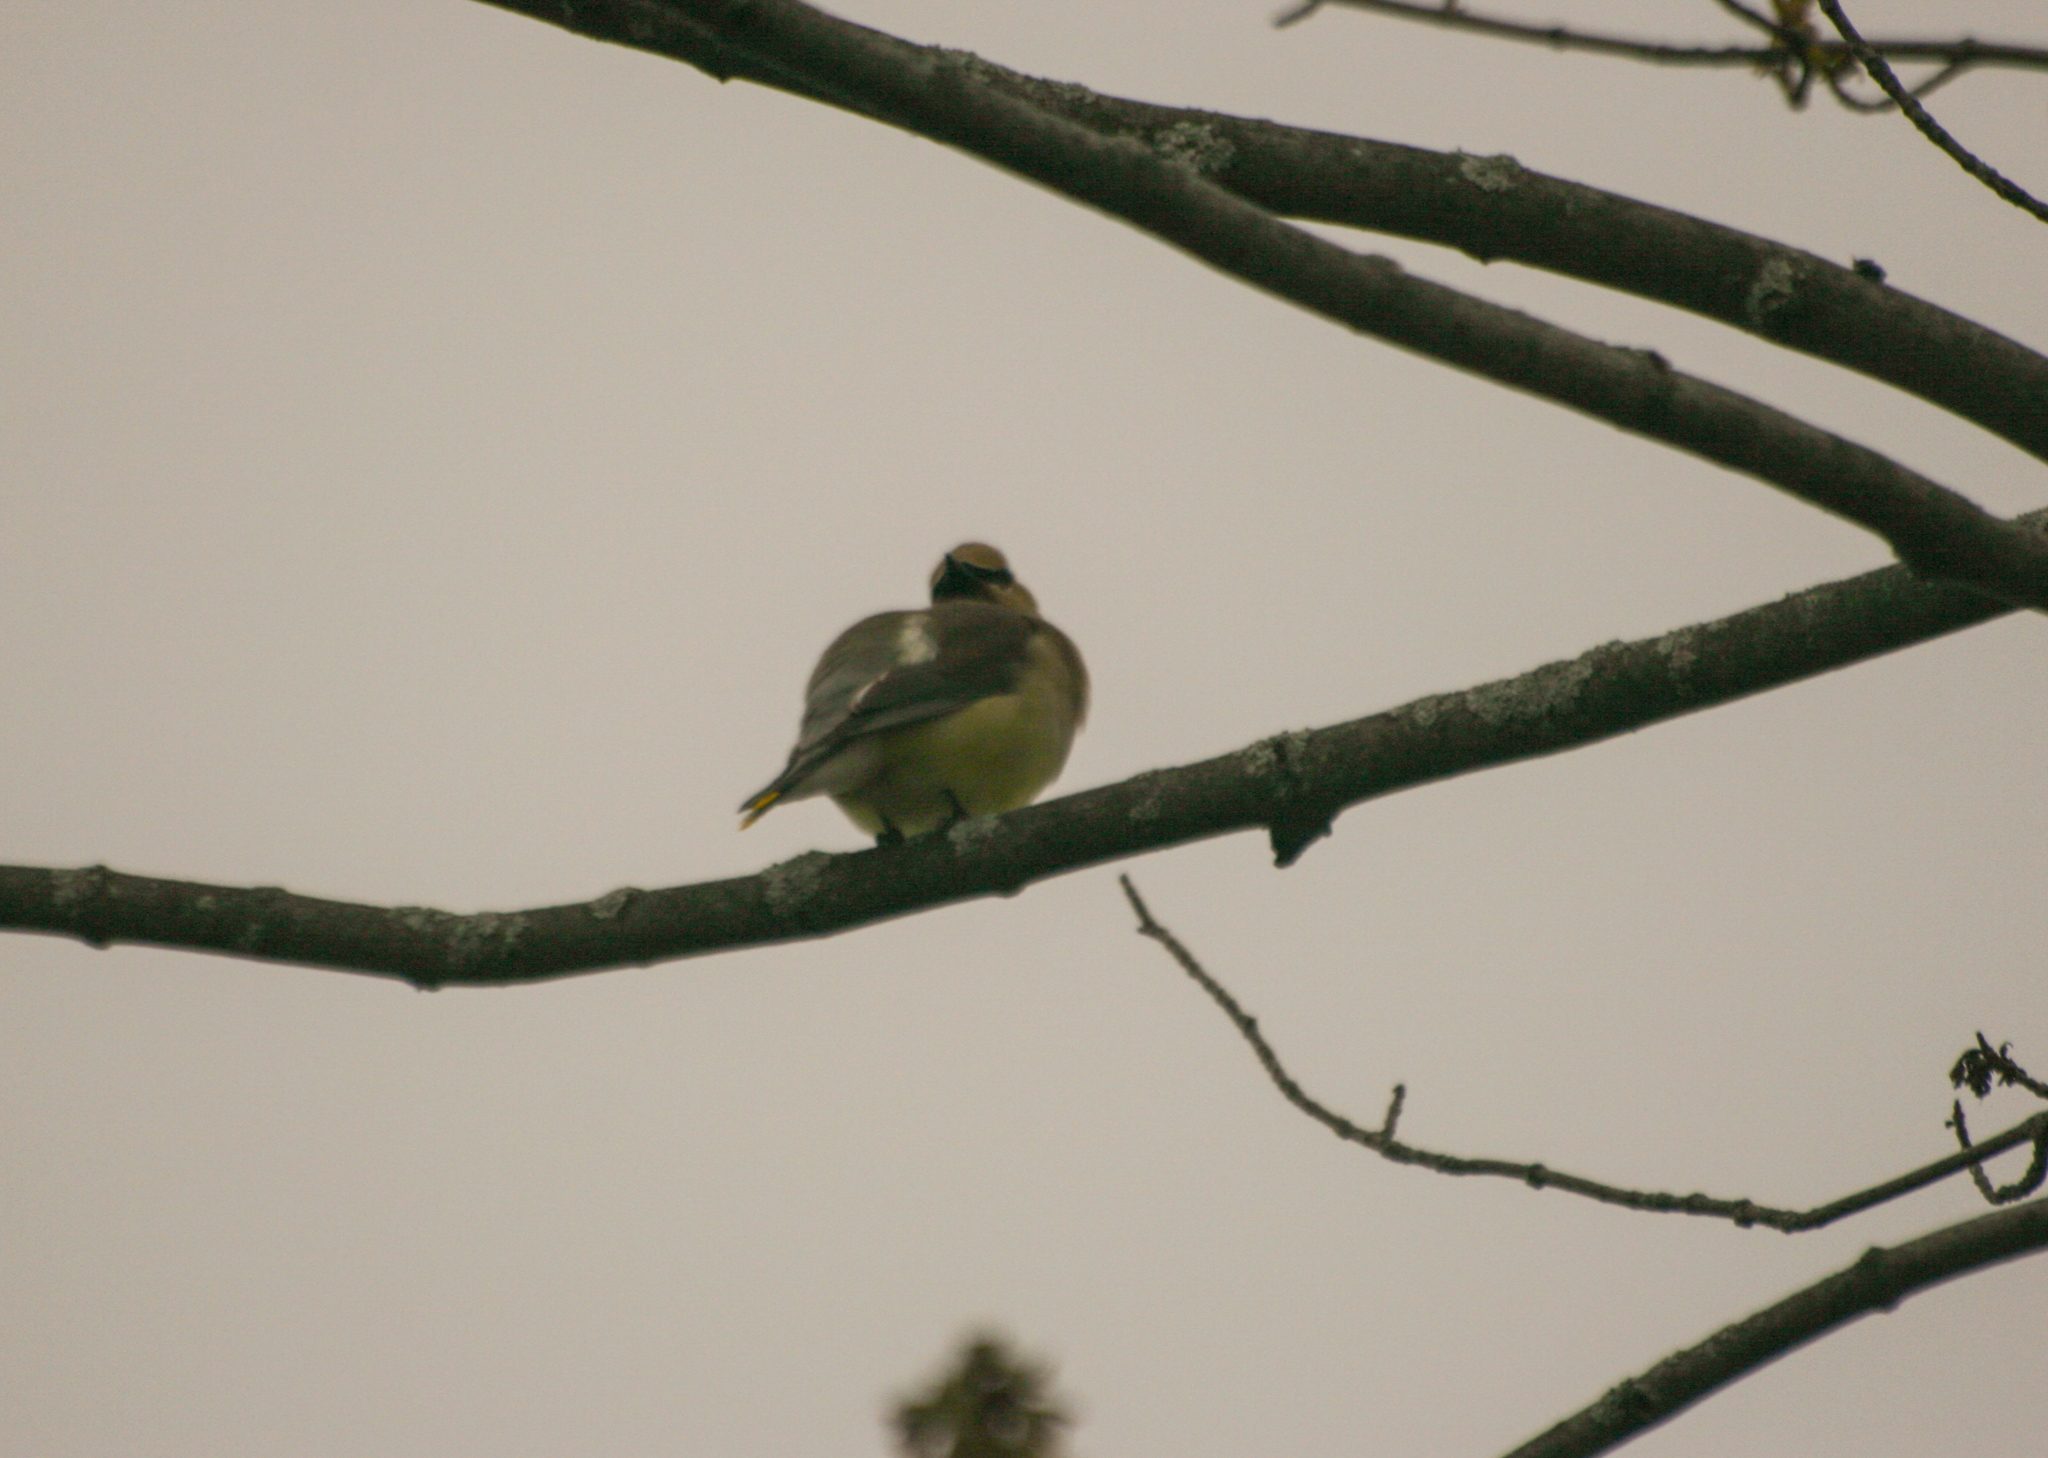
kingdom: Animalia
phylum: Chordata
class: Aves
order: Passeriformes
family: Bombycillidae
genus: Bombycilla
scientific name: Bombycilla cedrorum
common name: Cedar waxwing
